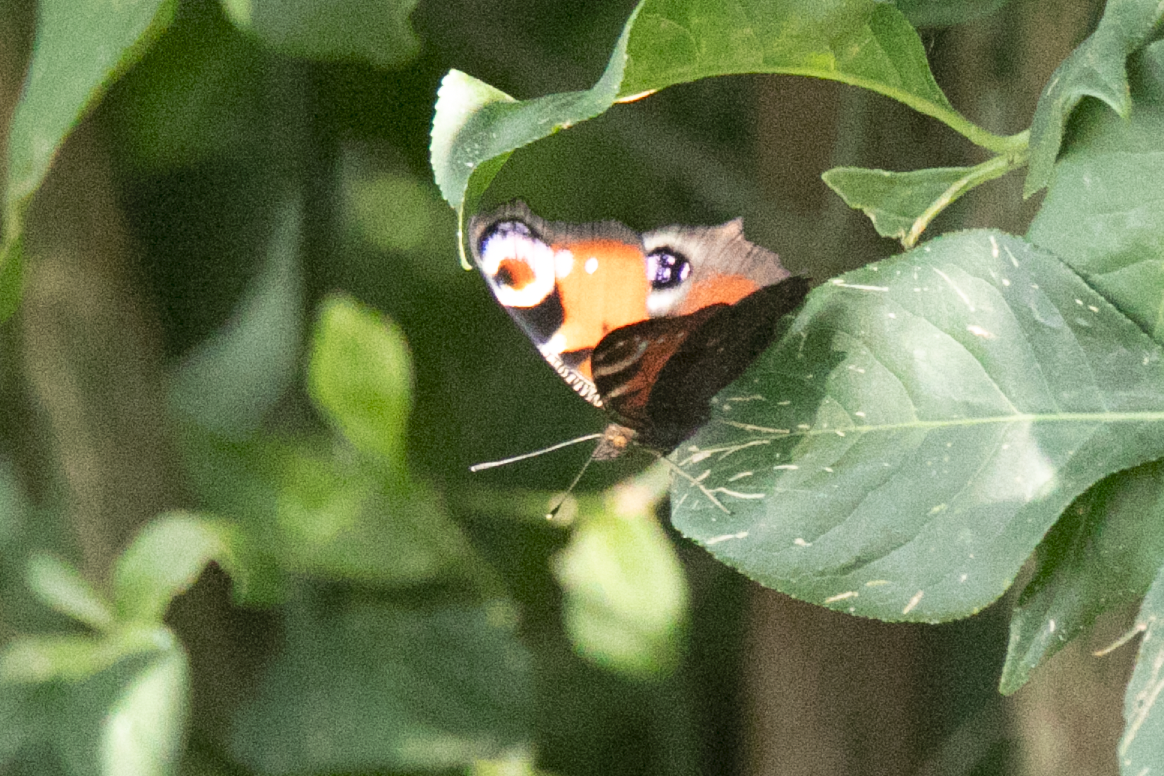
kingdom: Animalia
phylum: Arthropoda
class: Insecta
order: Lepidoptera
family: Nymphalidae
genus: Aglais
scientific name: Aglais io
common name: Peacock
